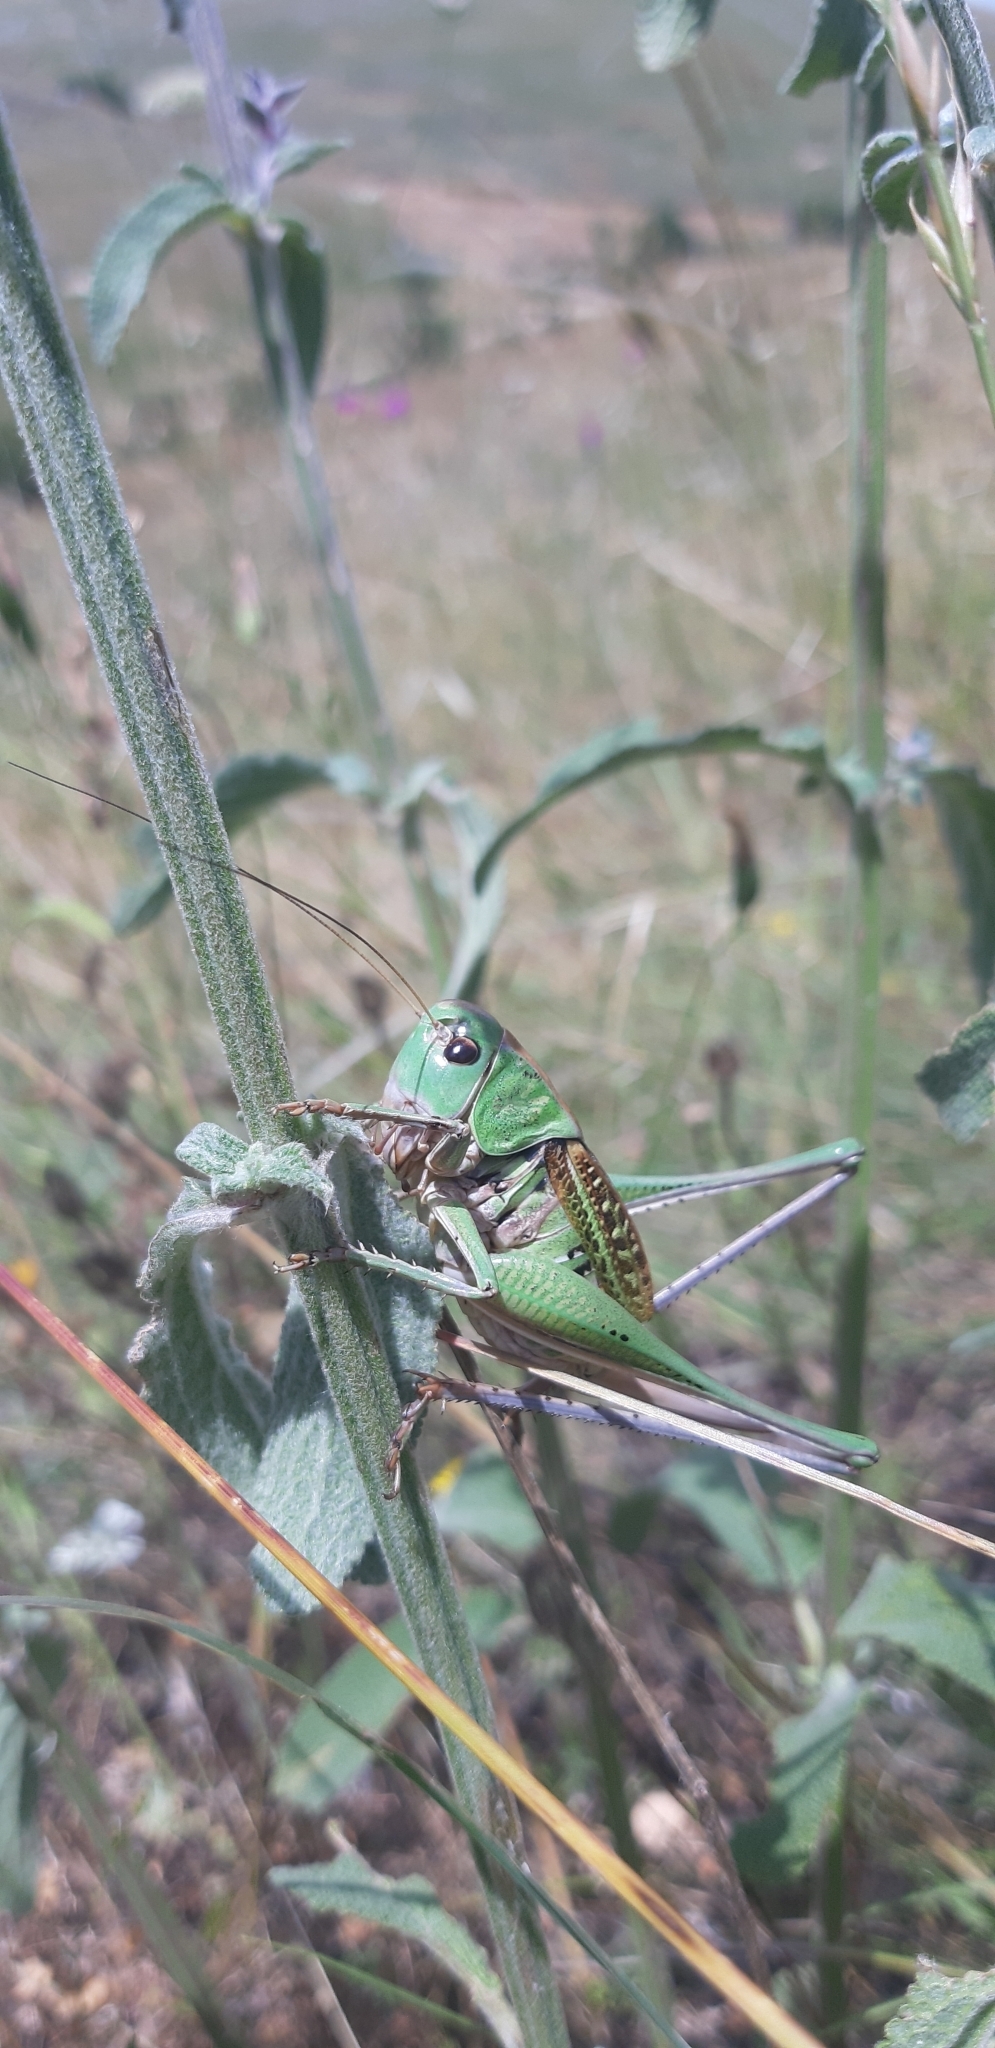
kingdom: Animalia
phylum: Arthropoda
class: Insecta
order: Orthoptera
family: Tettigoniidae
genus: Decticus
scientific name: Decticus loudoni
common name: Apulian wart-biter
